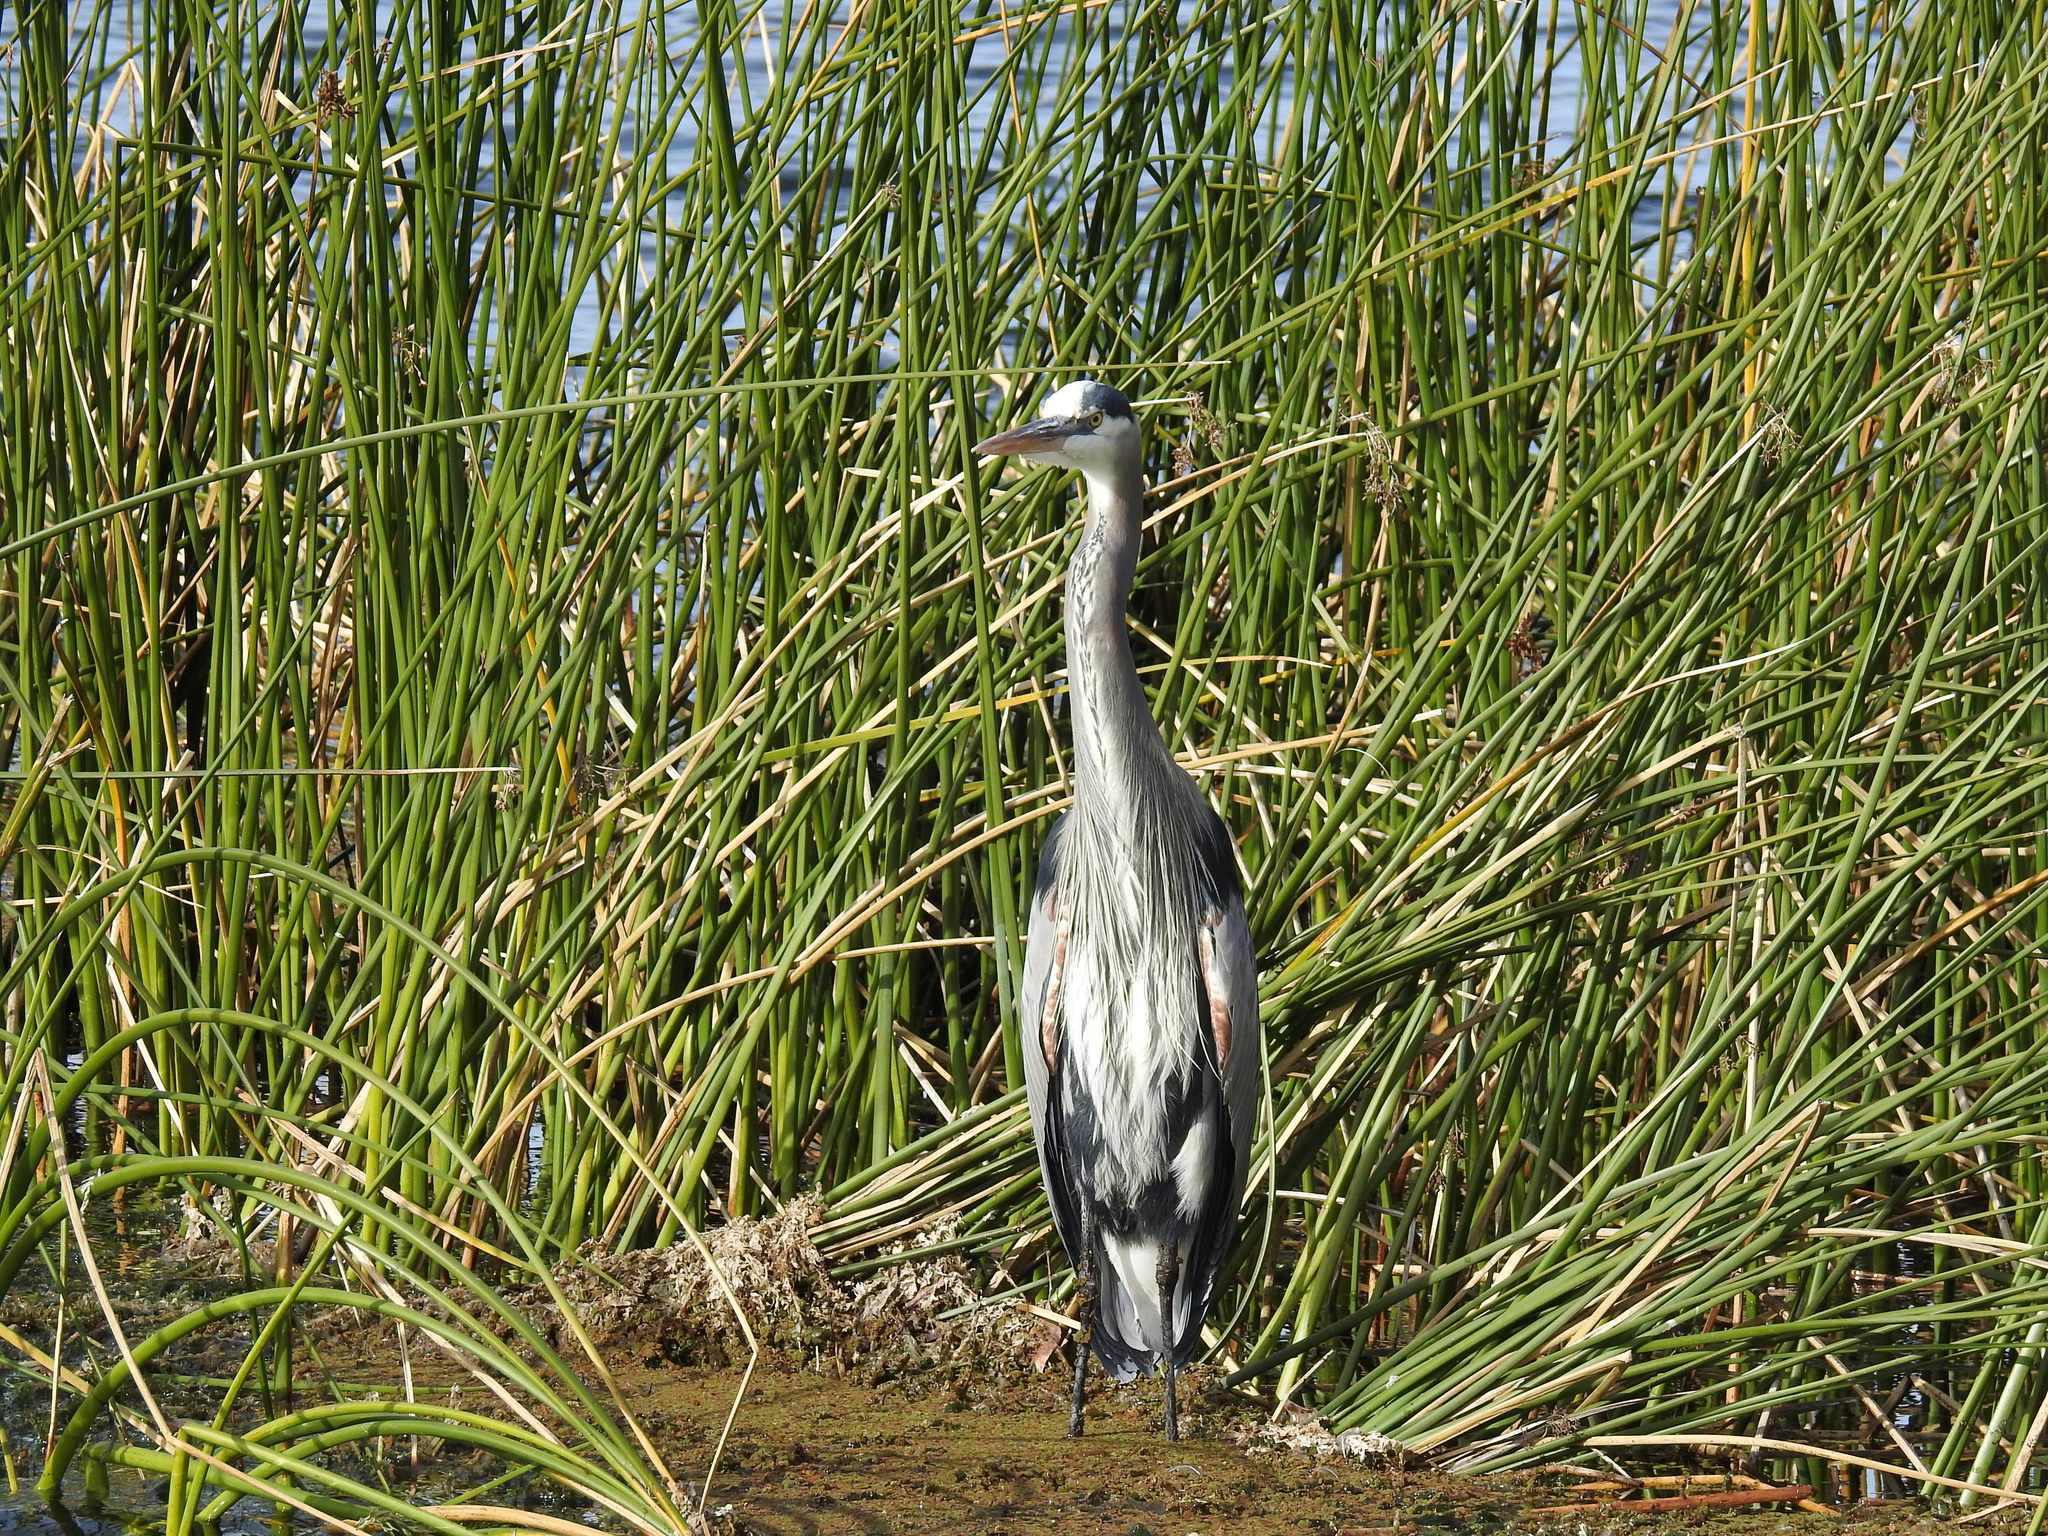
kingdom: Animalia
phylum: Chordata
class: Aves
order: Pelecaniformes
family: Ardeidae
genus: Ardea
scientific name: Ardea herodias
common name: Great blue heron
